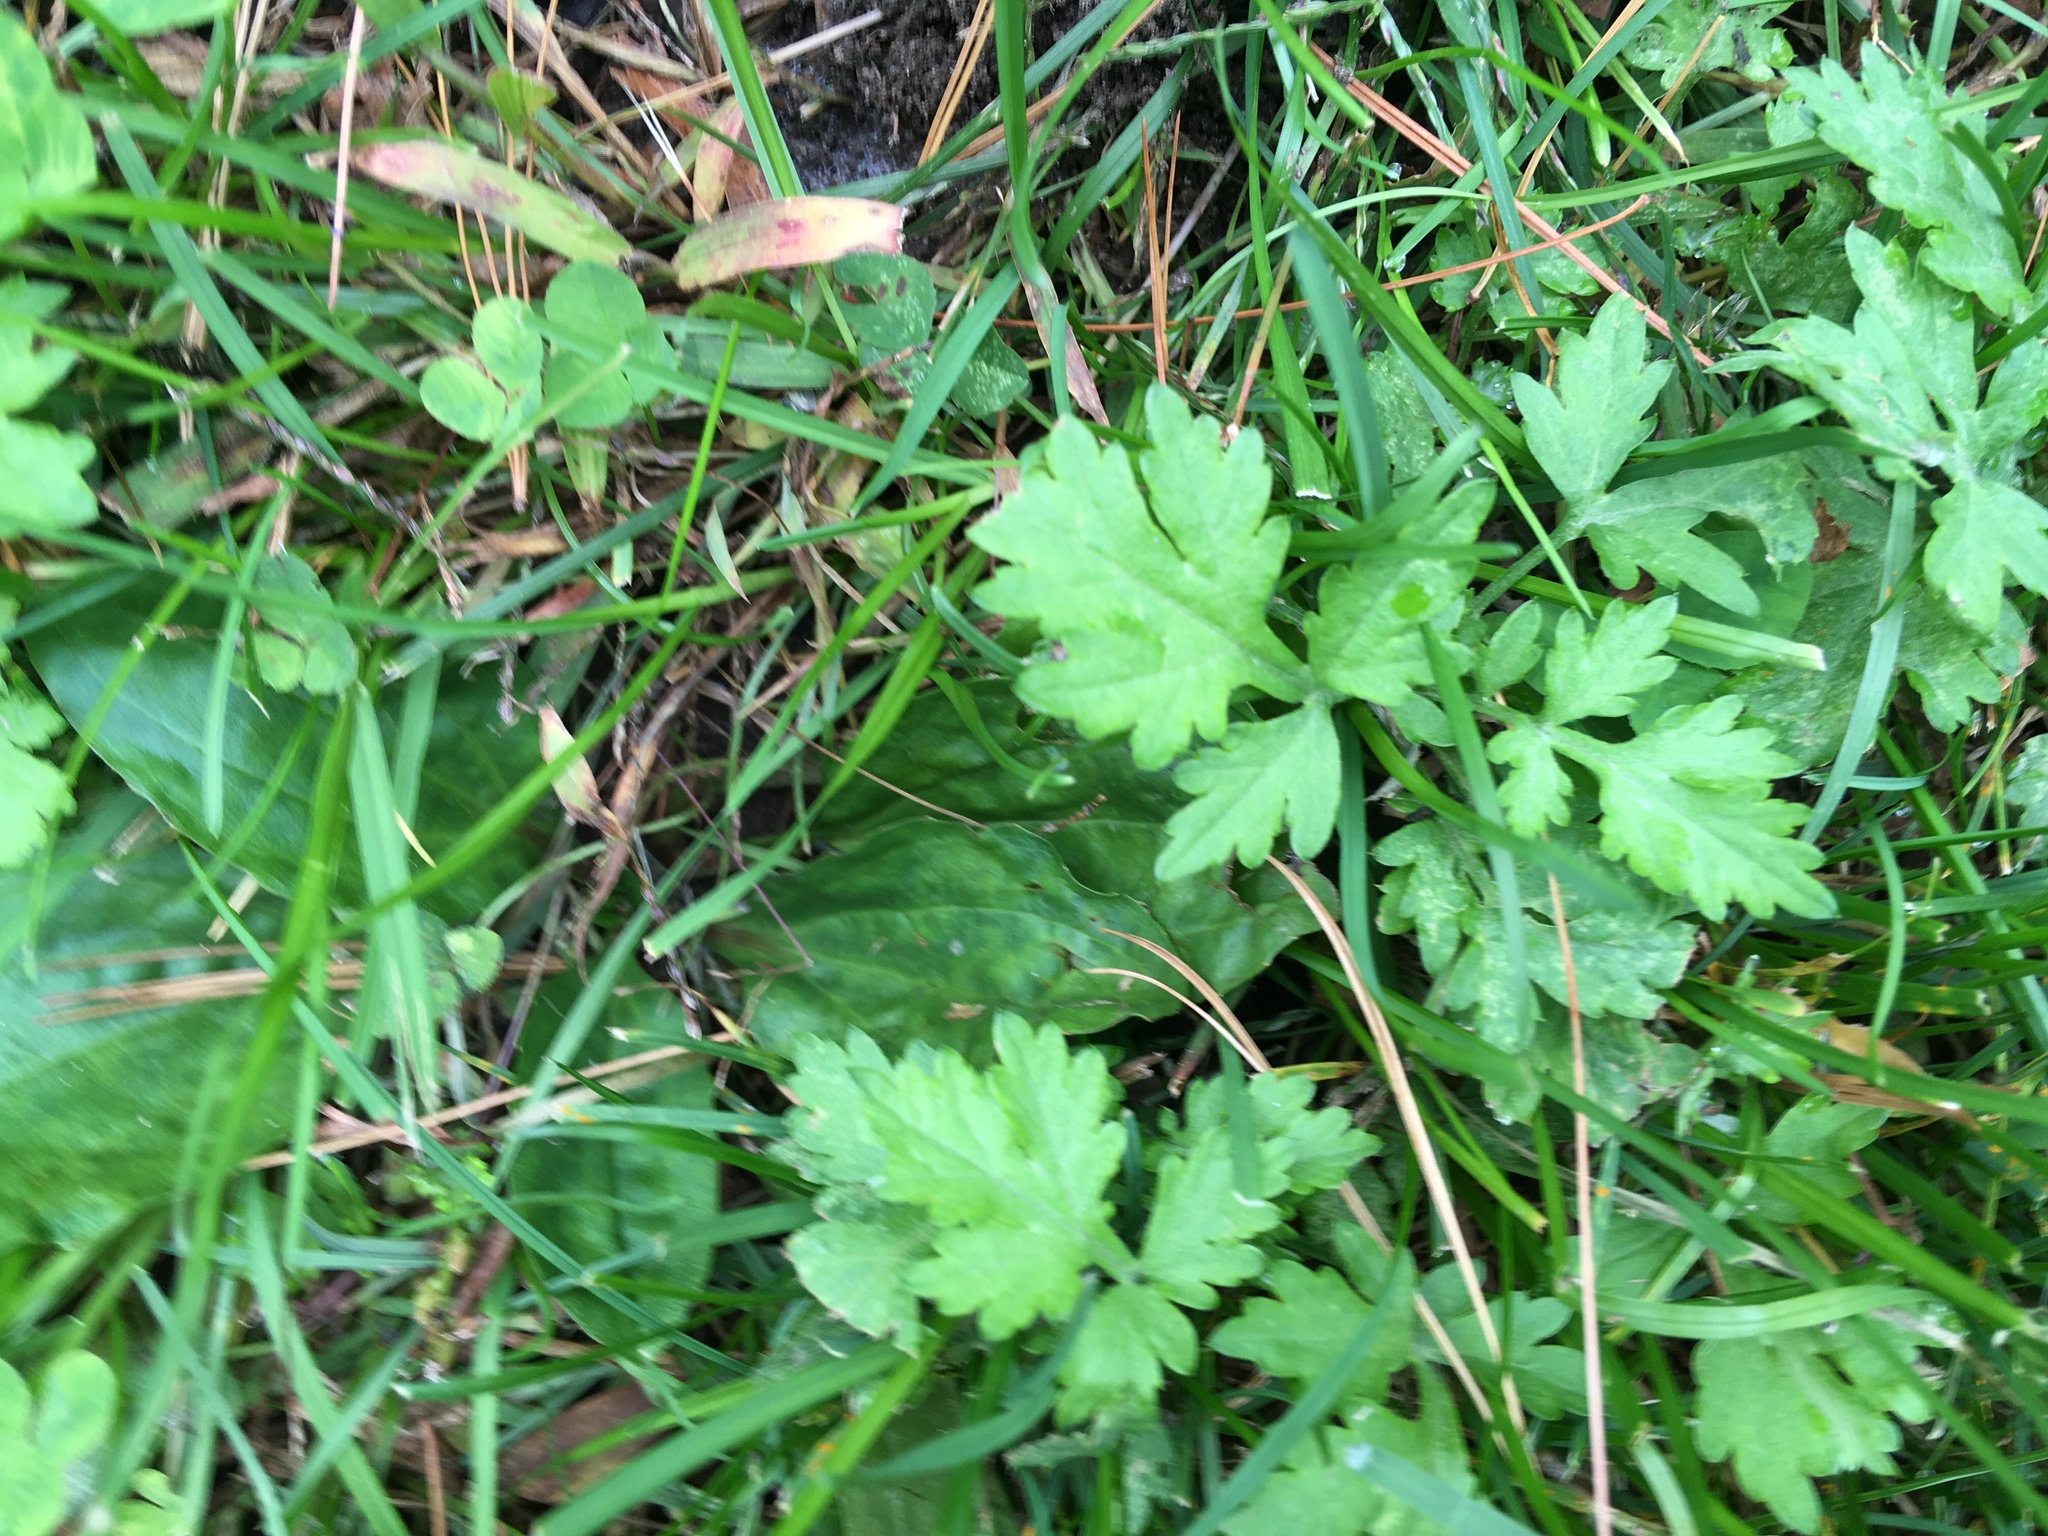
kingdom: Plantae
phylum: Tracheophyta
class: Magnoliopsida
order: Asterales
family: Asteraceae
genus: Artemisia
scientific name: Artemisia vulgaris
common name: Mugwort
